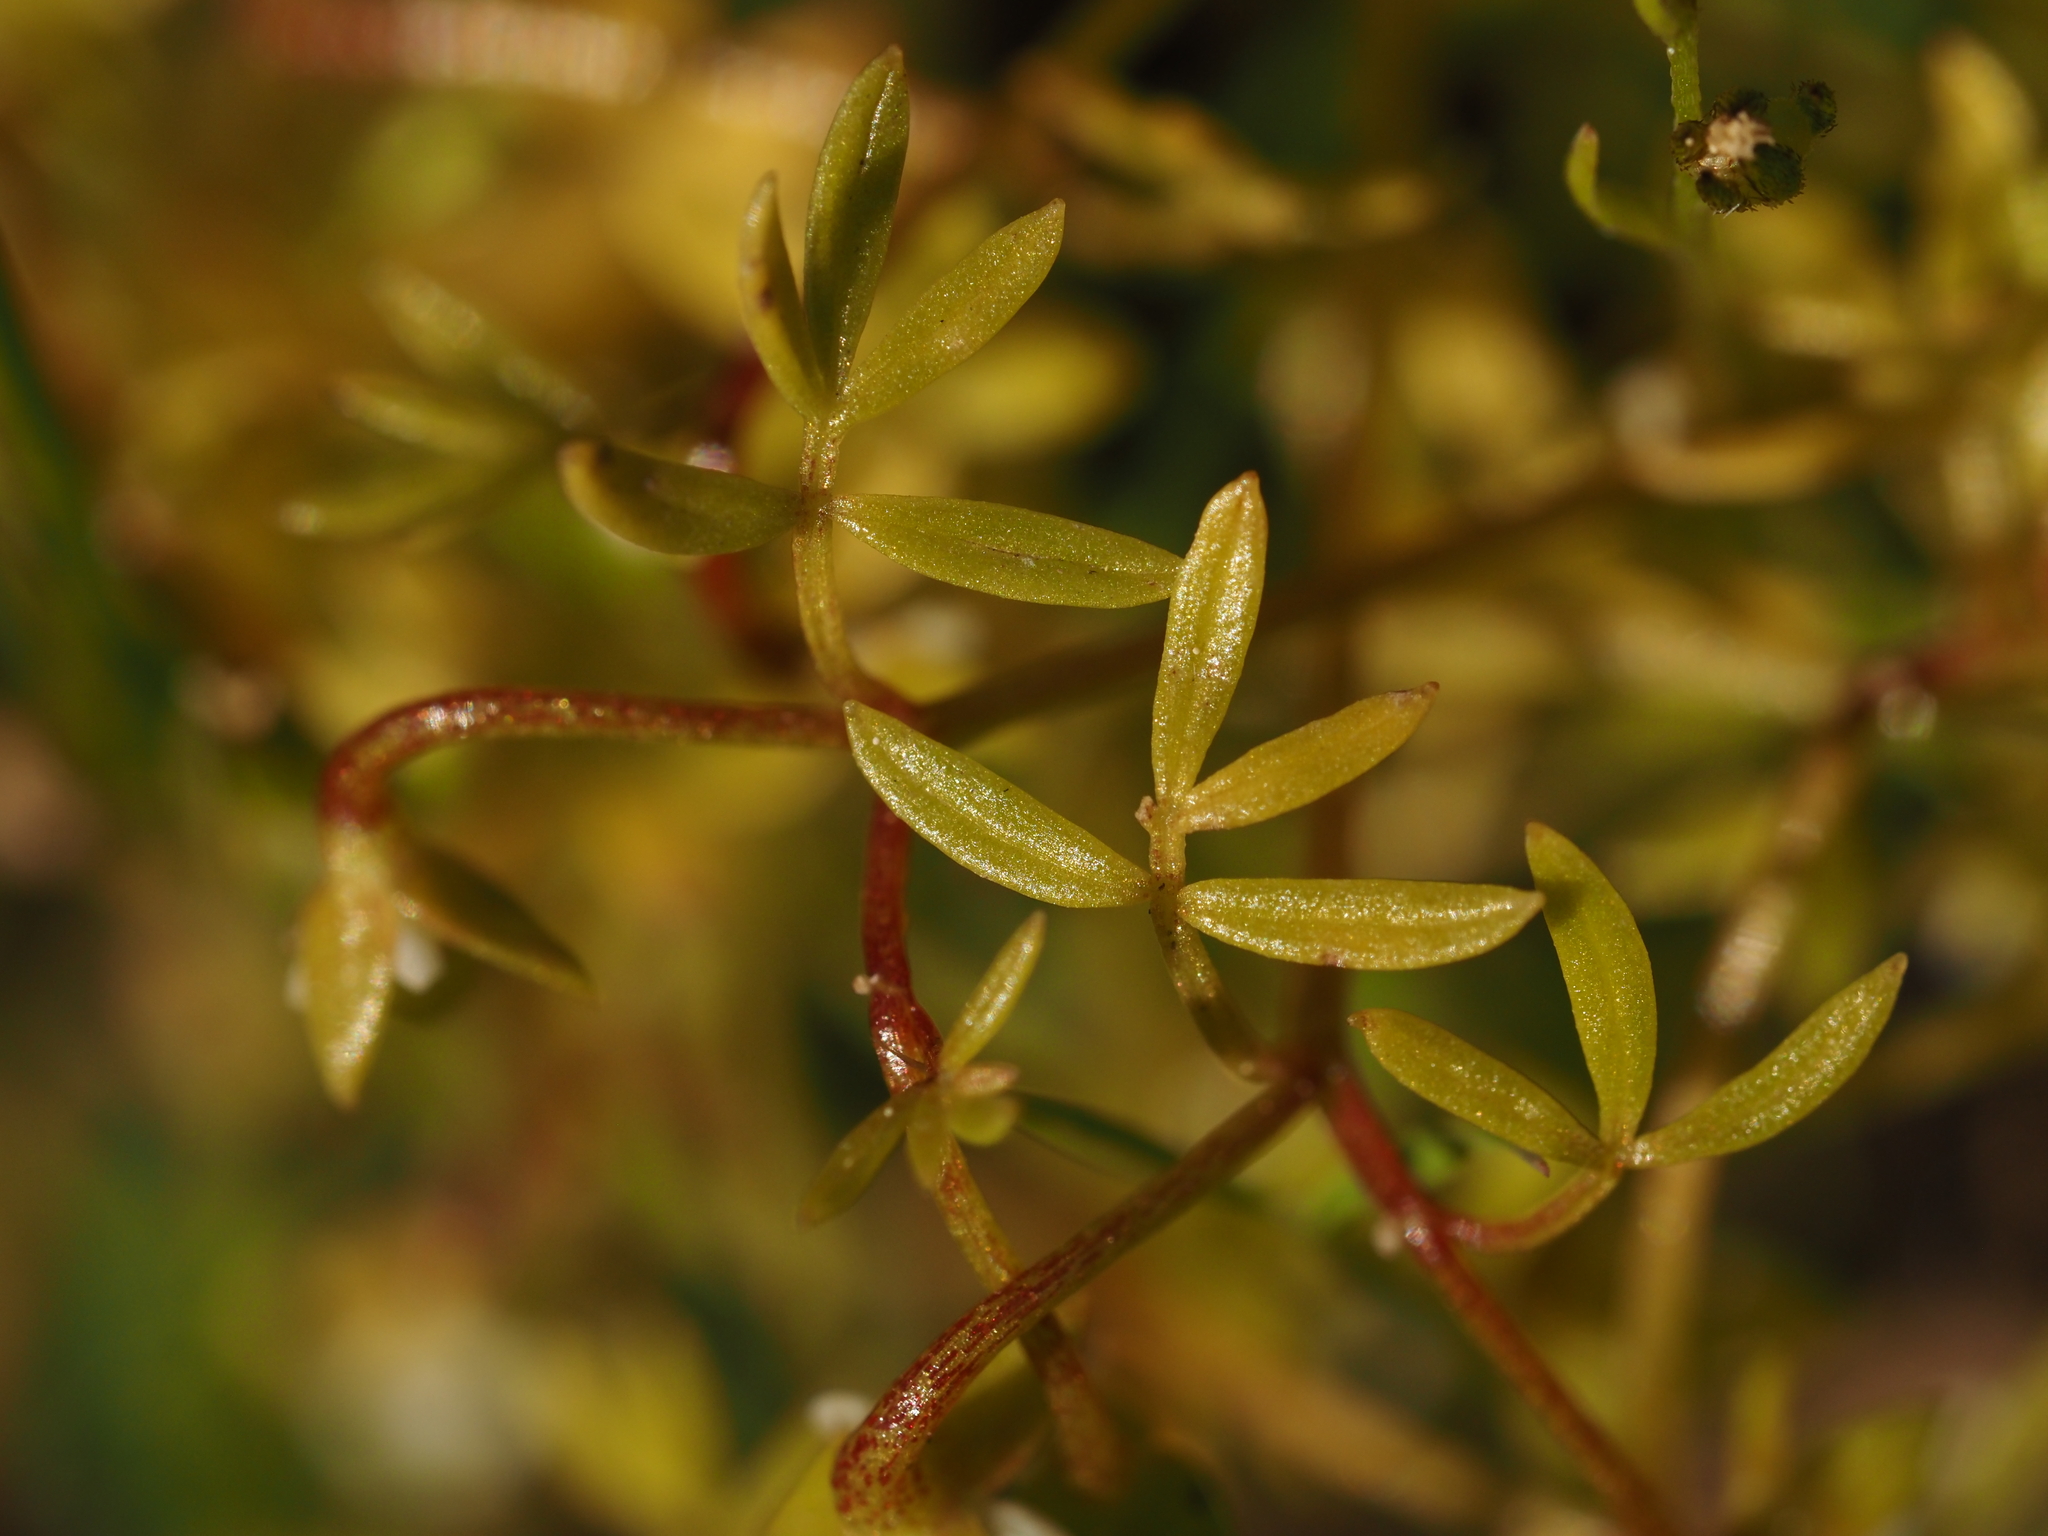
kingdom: Plantae
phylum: Tracheophyta
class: Magnoliopsida
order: Brassicales
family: Limnanthaceae
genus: Floerkea
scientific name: Floerkea proserpinacoides
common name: False mermaid
